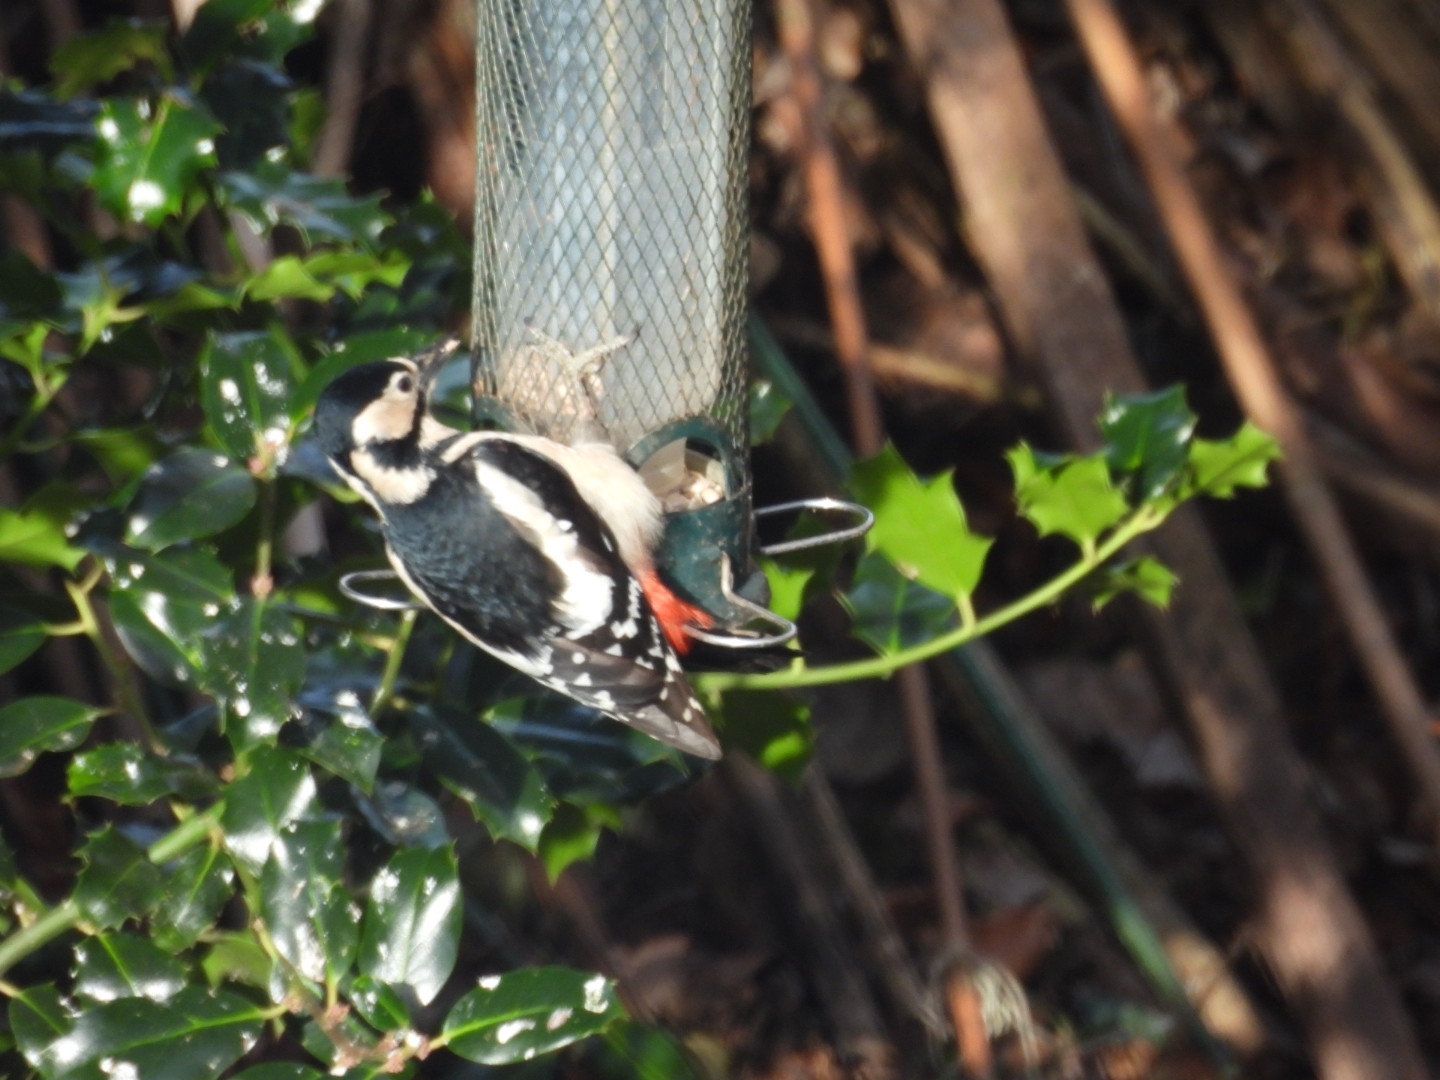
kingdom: Animalia
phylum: Chordata
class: Aves
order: Piciformes
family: Picidae
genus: Dendrocopos
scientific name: Dendrocopos major
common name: Great spotted woodpecker
